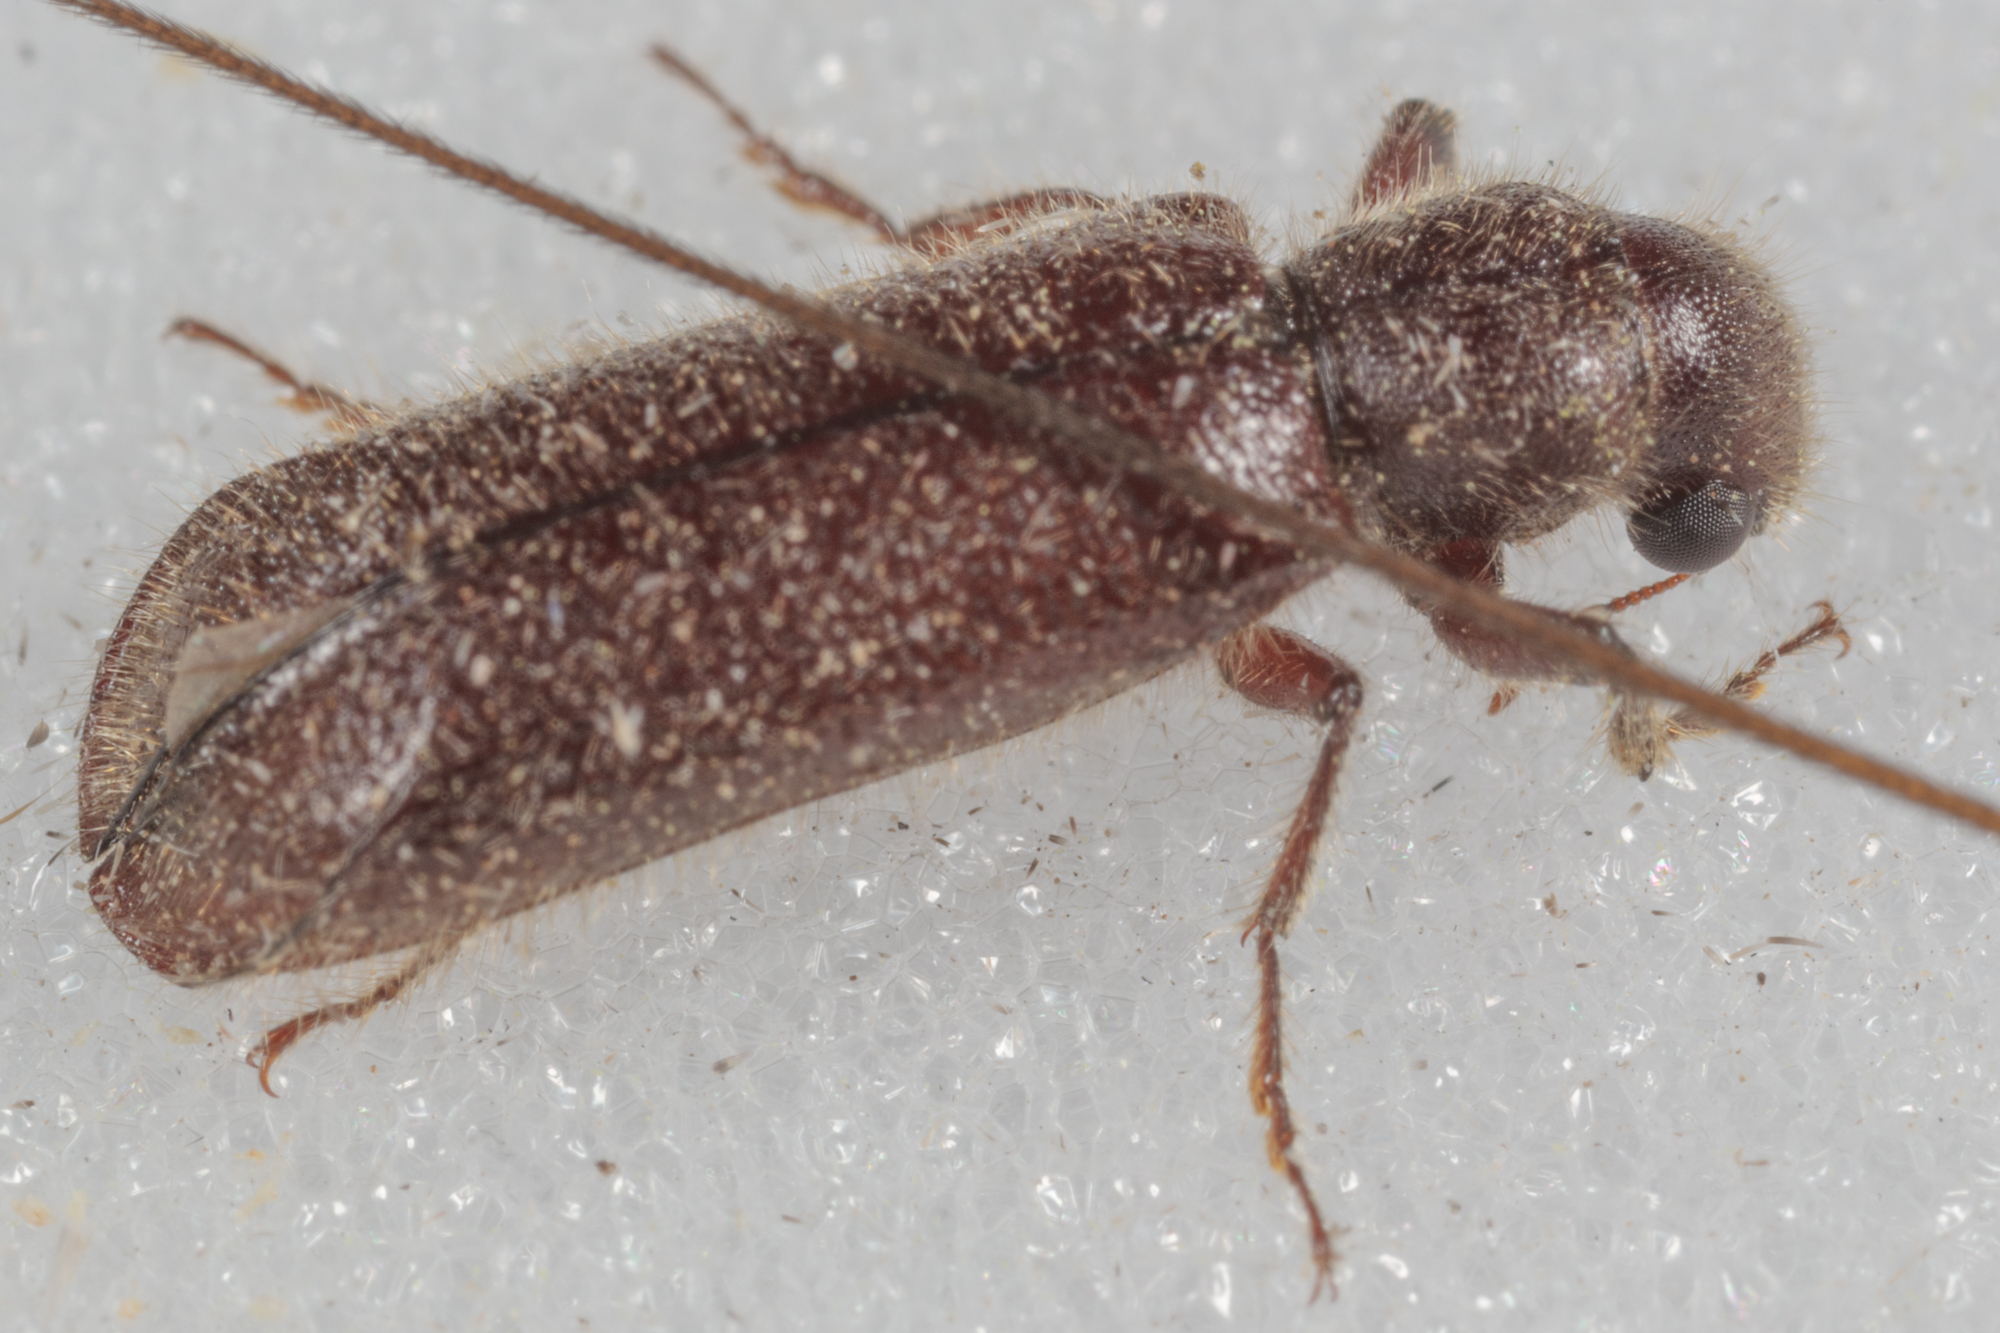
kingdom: Animalia
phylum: Arthropoda
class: Insecta
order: Coleoptera
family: Bostrichidae
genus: Melalgus
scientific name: Melalgus plicatus
